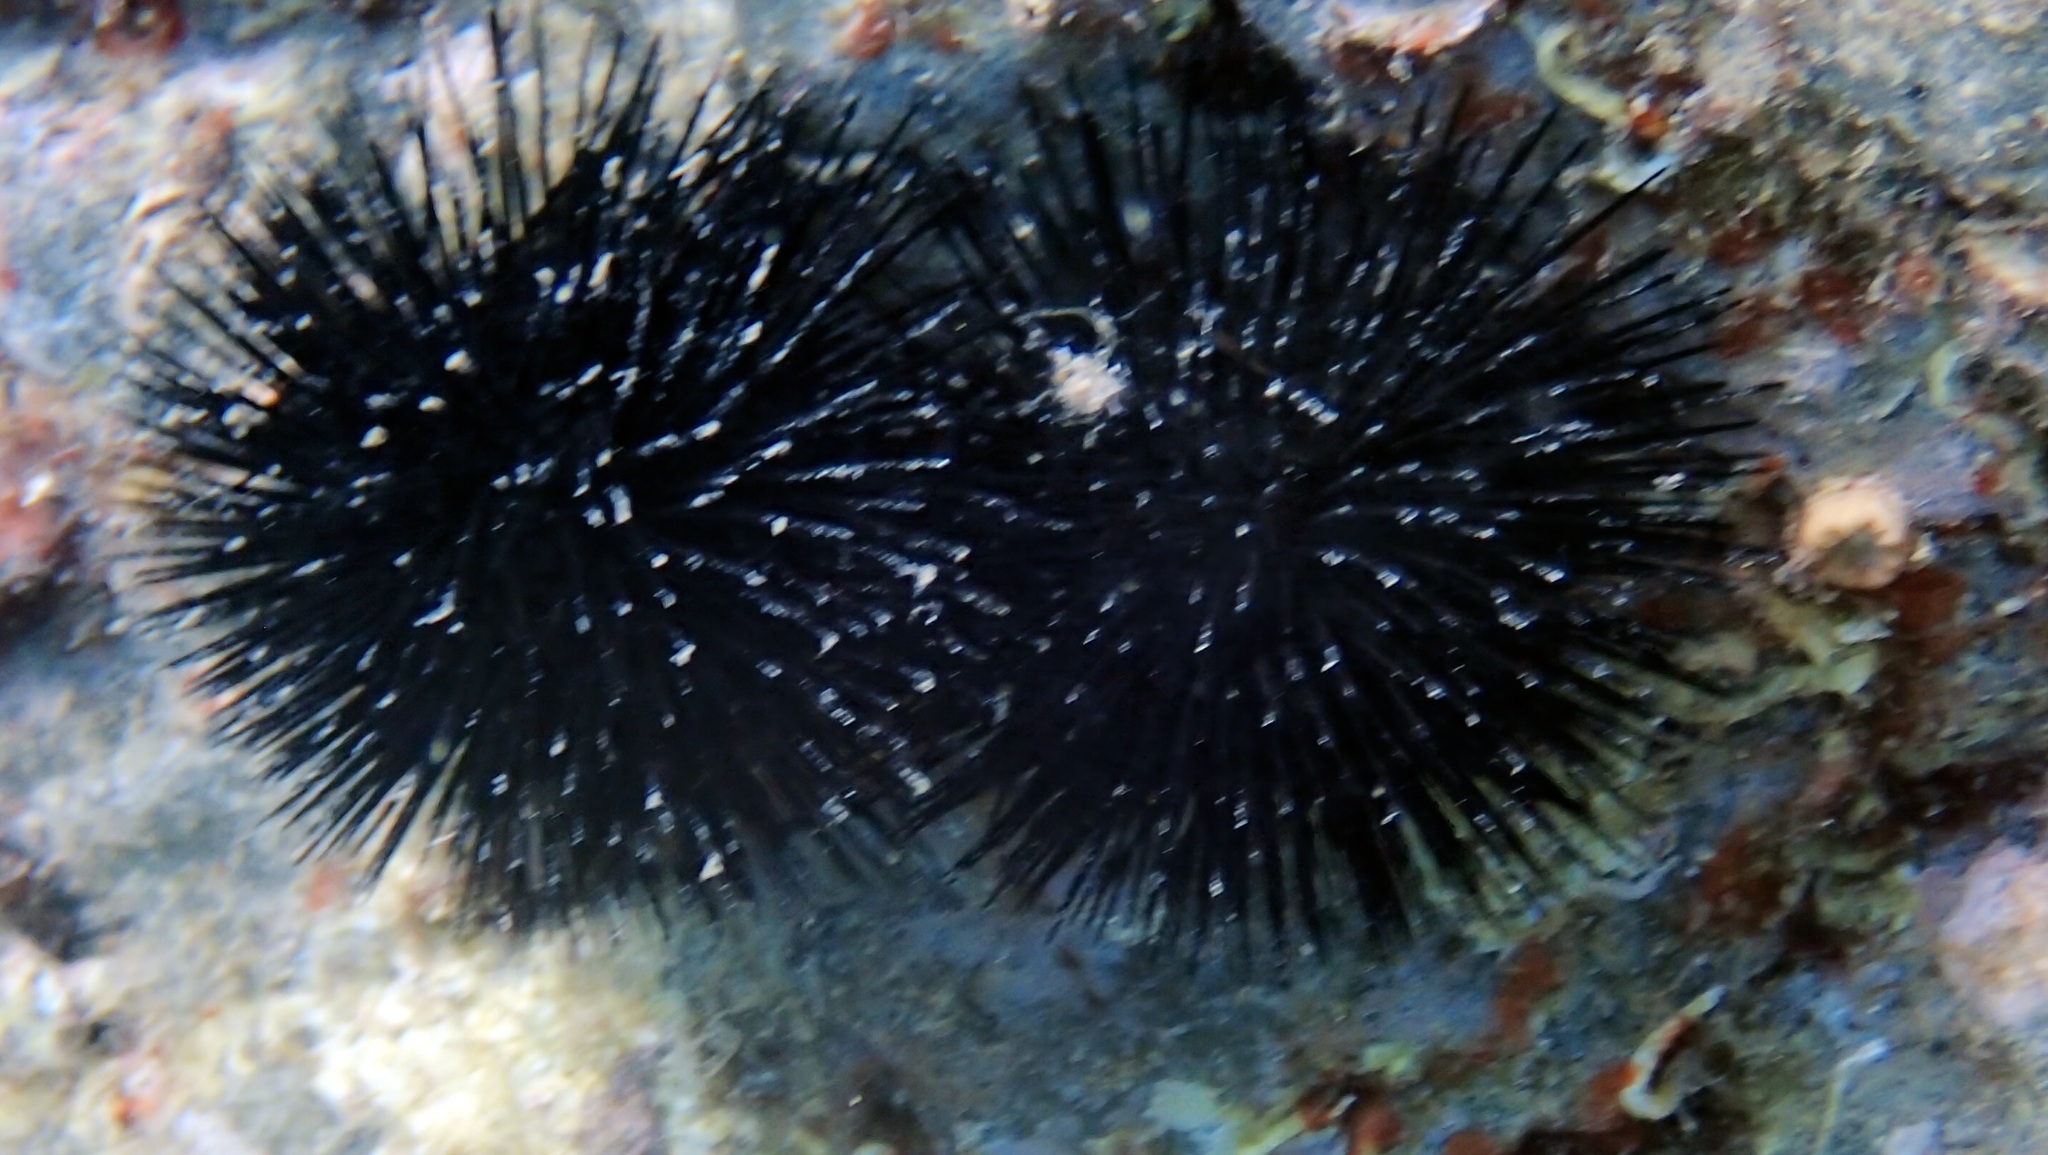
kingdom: Animalia
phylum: Echinodermata
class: Echinoidea
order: Arbacioida
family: Arbaciidae
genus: Arbacia
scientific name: Arbacia lixula
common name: Black sea urchin
